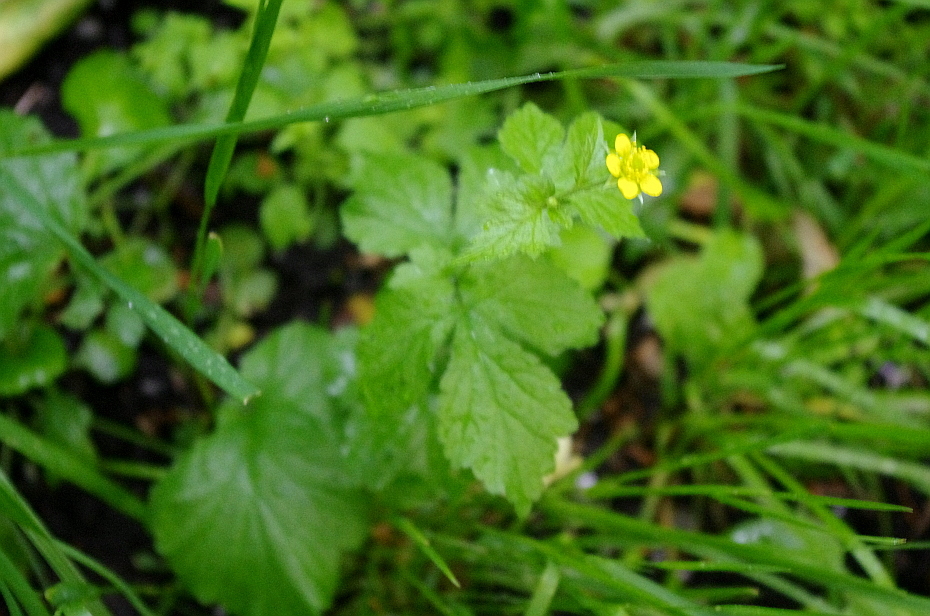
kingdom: Plantae
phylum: Tracheophyta
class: Magnoliopsida
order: Rosales
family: Rosaceae
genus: Geum
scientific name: Geum urbanum
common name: Wood avens
